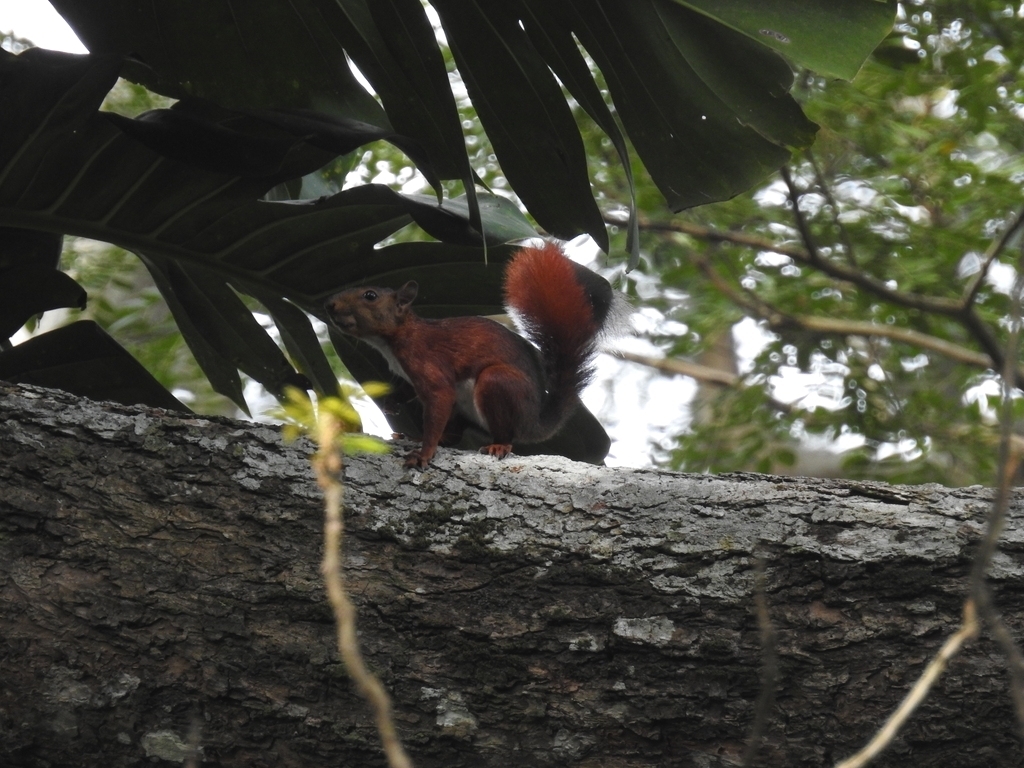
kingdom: Animalia
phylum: Chordata
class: Mammalia
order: Rodentia
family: Sciuridae
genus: Sciurus
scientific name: Sciurus granatensis
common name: Red-tailed squirrel
